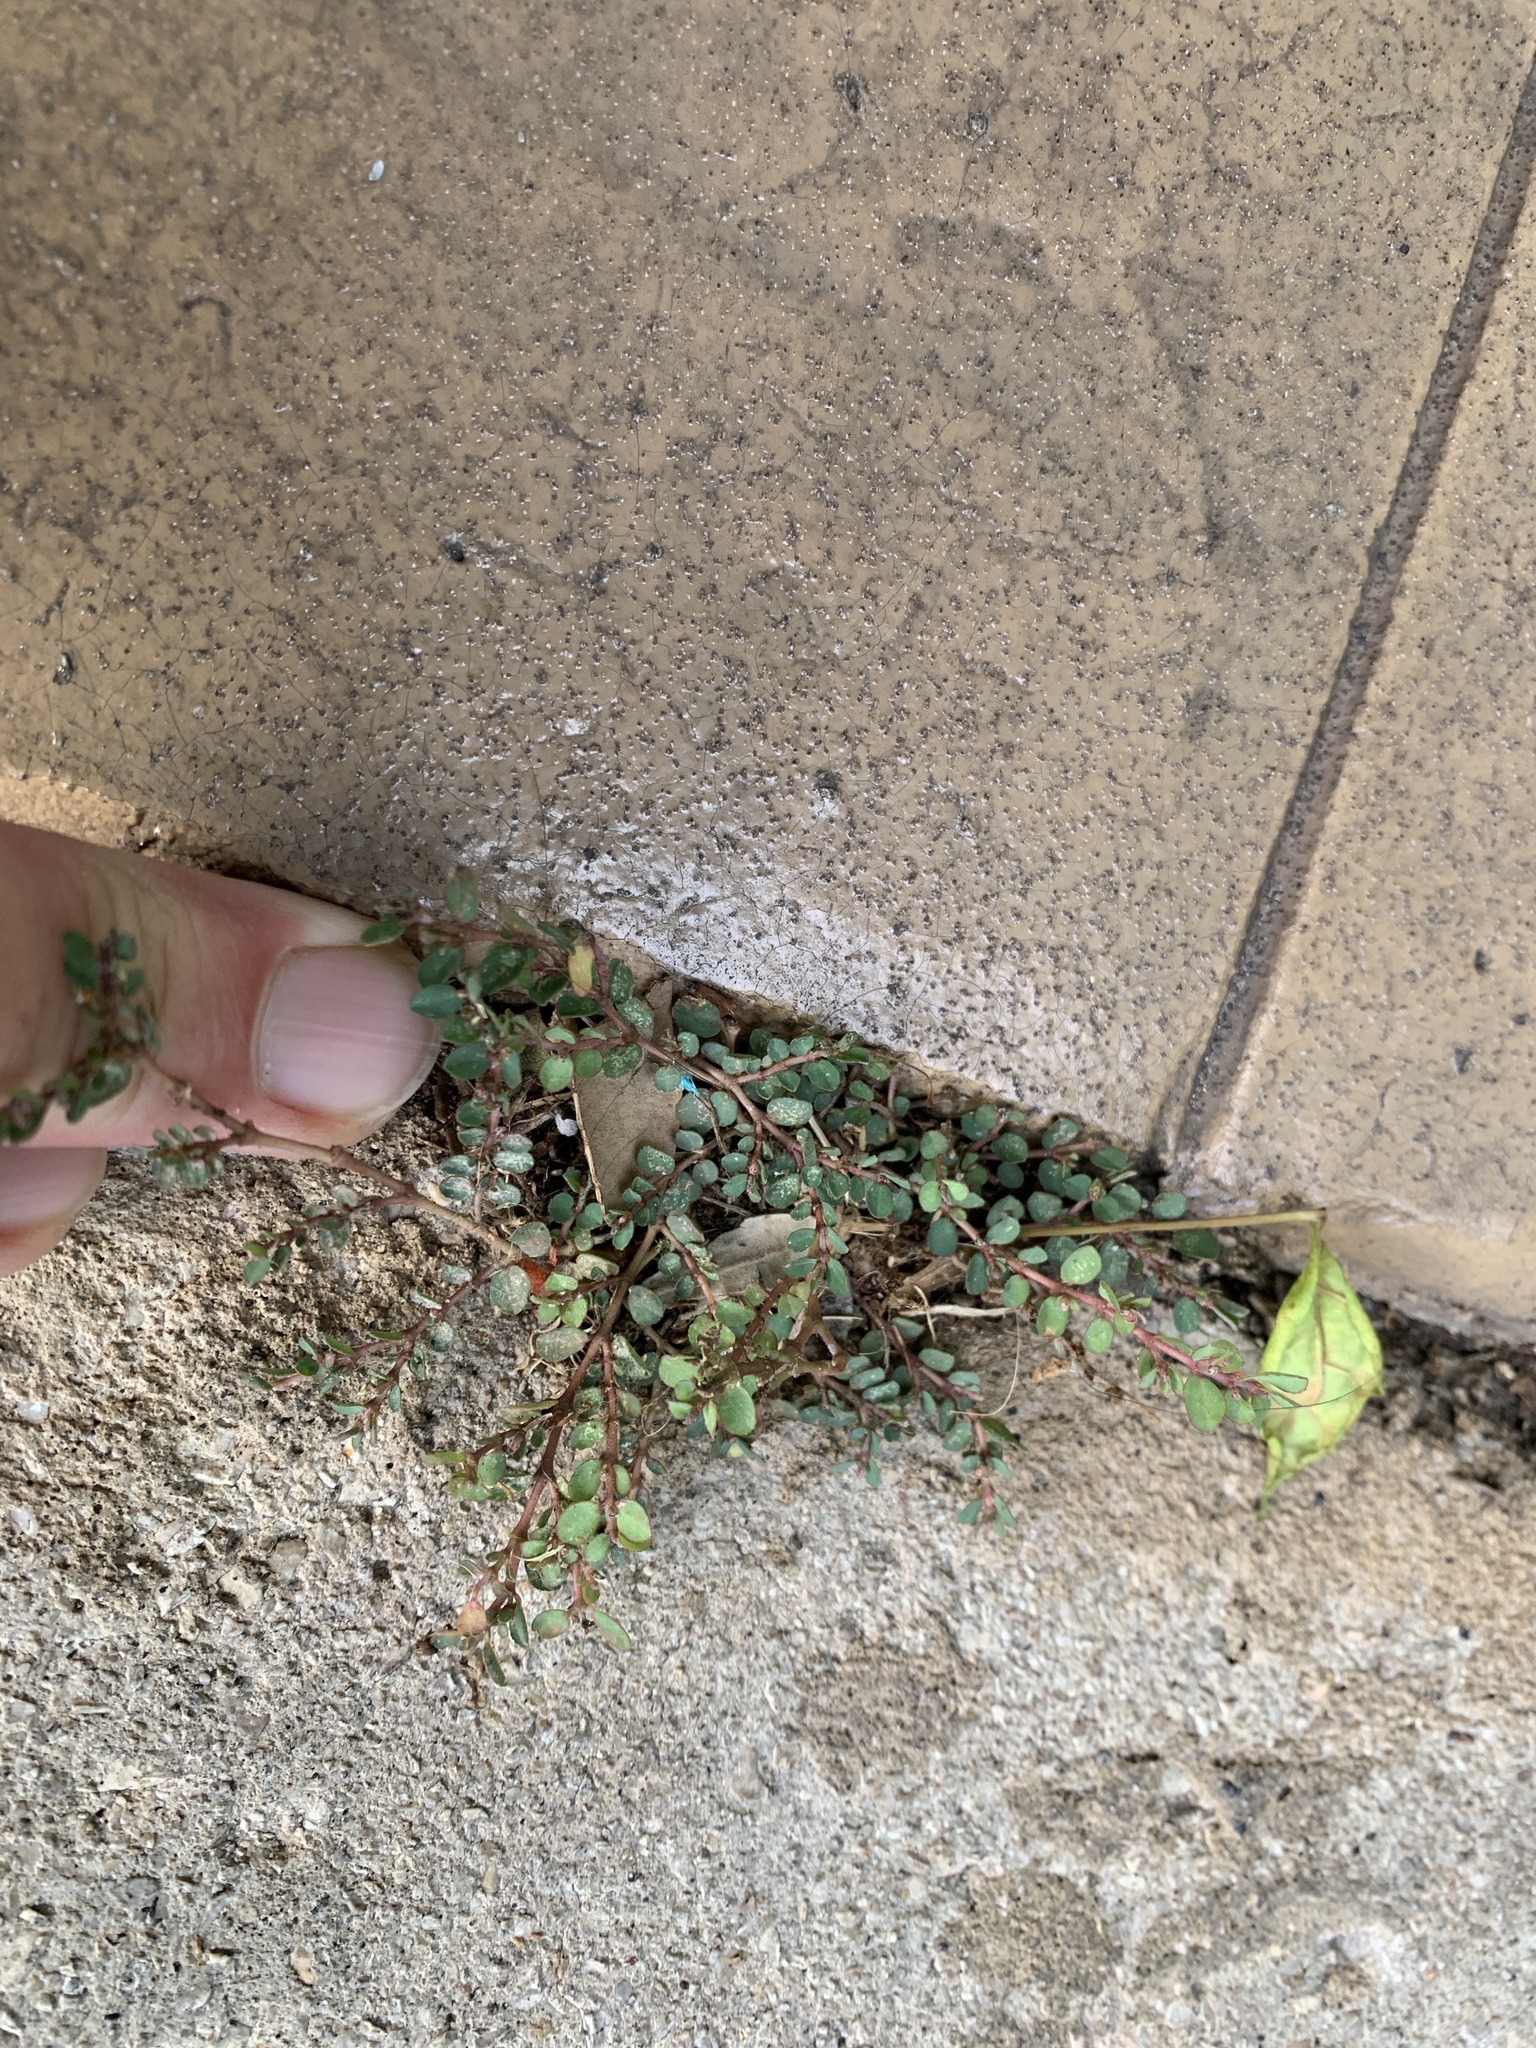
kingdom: Plantae
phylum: Tracheophyta
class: Magnoliopsida
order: Malpighiales
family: Euphorbiaceae
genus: Euphorbia
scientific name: Euphorbia prostrata
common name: Prostrate sandmat
